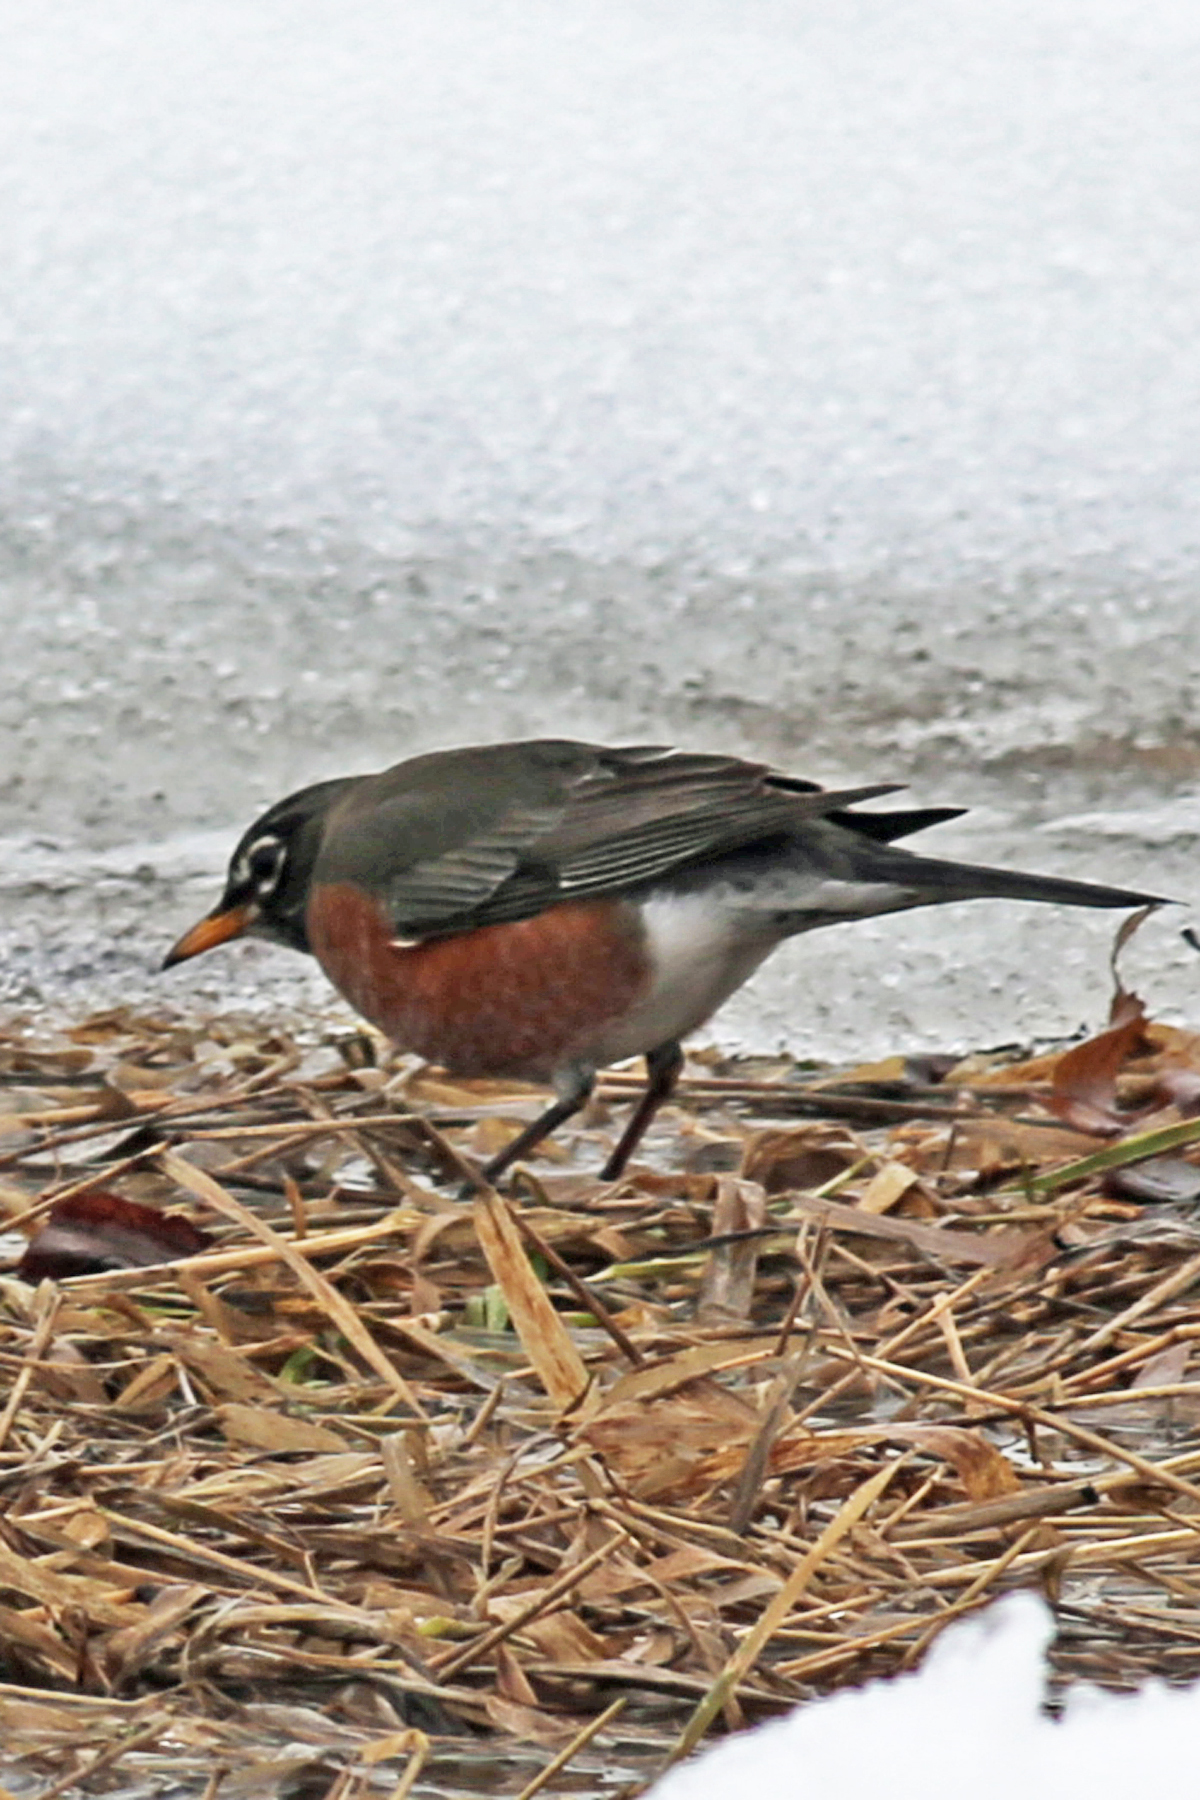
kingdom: Animalia
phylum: Chordata
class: Aves
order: Passeriformes
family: Turdidae
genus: Turdus
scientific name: Turdus migratorius
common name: American robin
